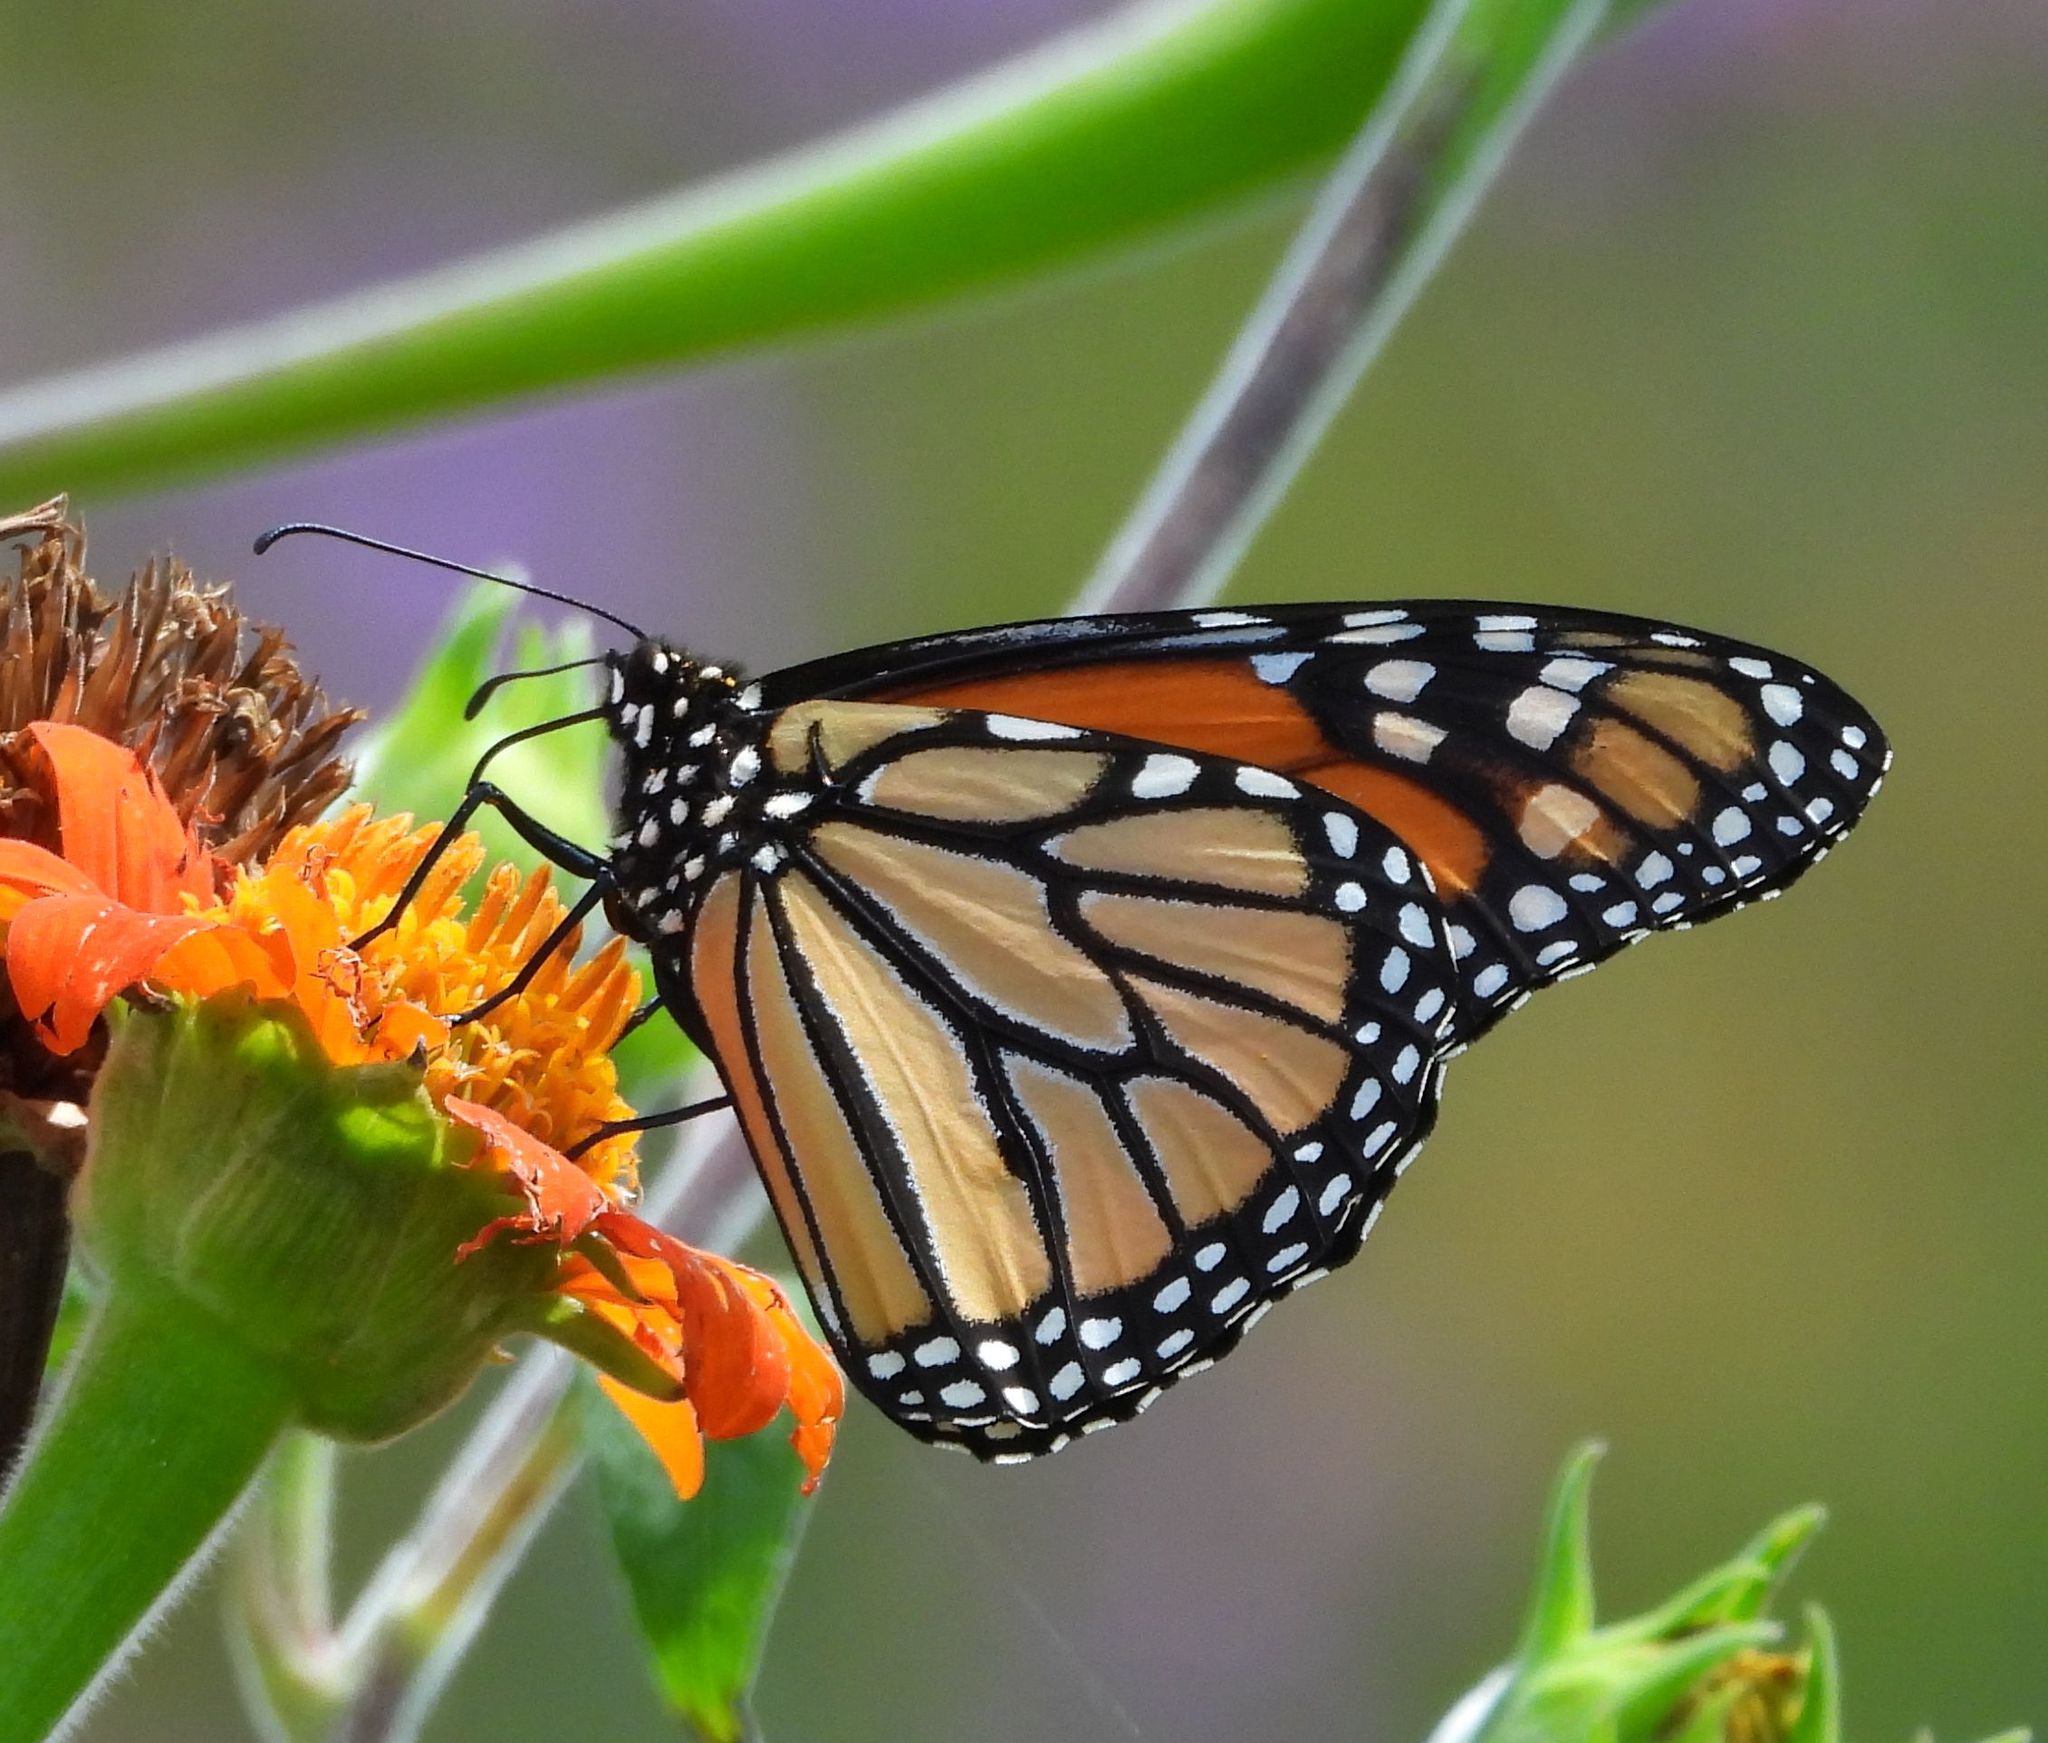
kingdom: Animalia
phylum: Arthropoda
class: Insecta
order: Lepidoptera
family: Nymphalidae
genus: Danaus
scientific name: Danaus plexippus
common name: Monarch
